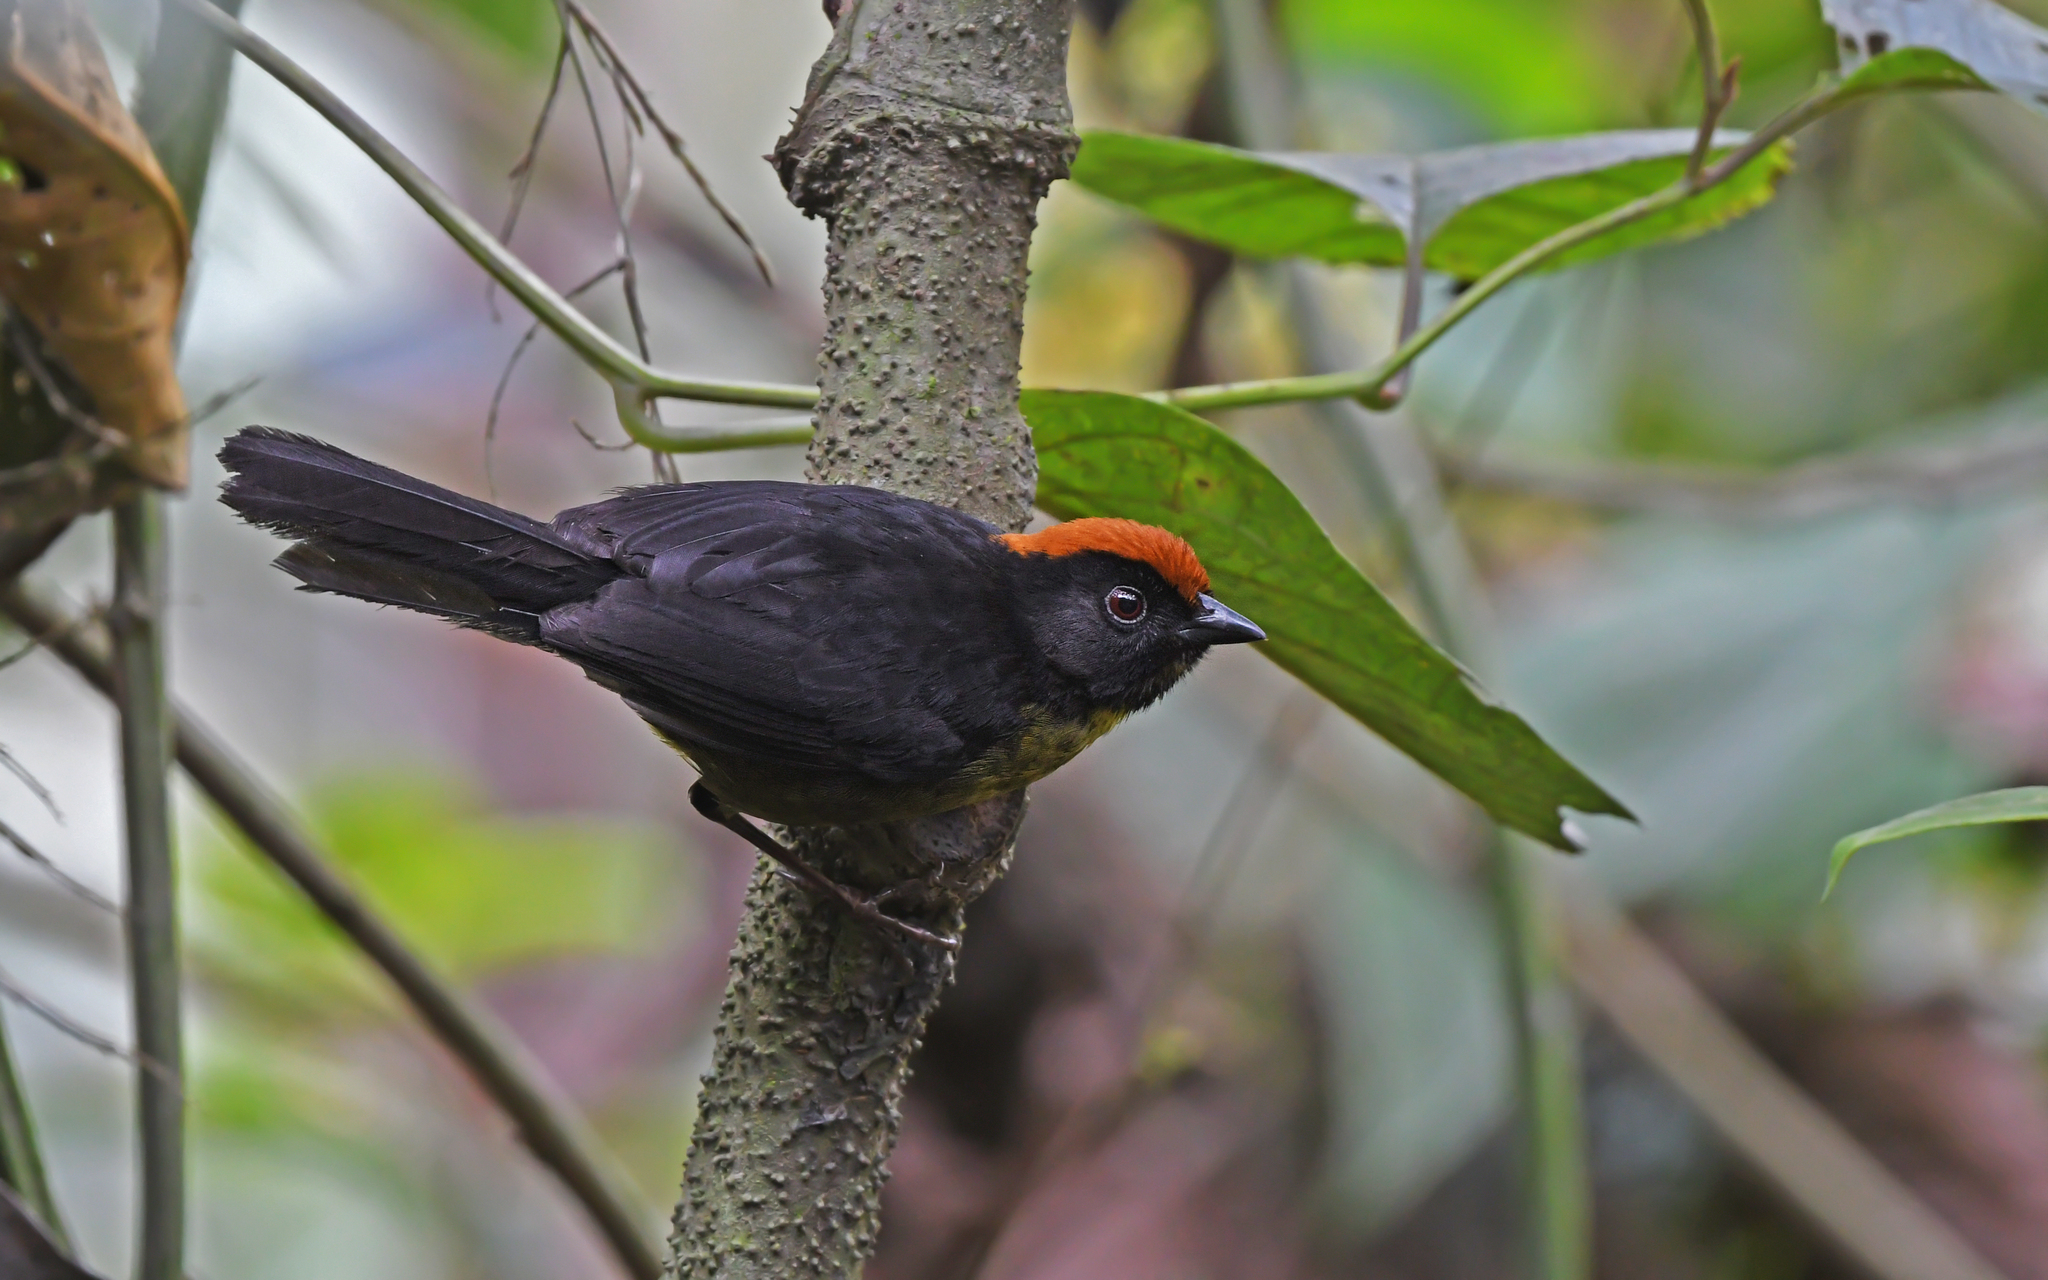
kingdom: Animalia
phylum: Chordata
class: Aves
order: Passeriformes
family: Passerellidae
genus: Atlapetes
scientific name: Atlapetes melanolaemus
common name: Grey-eared brush finch
